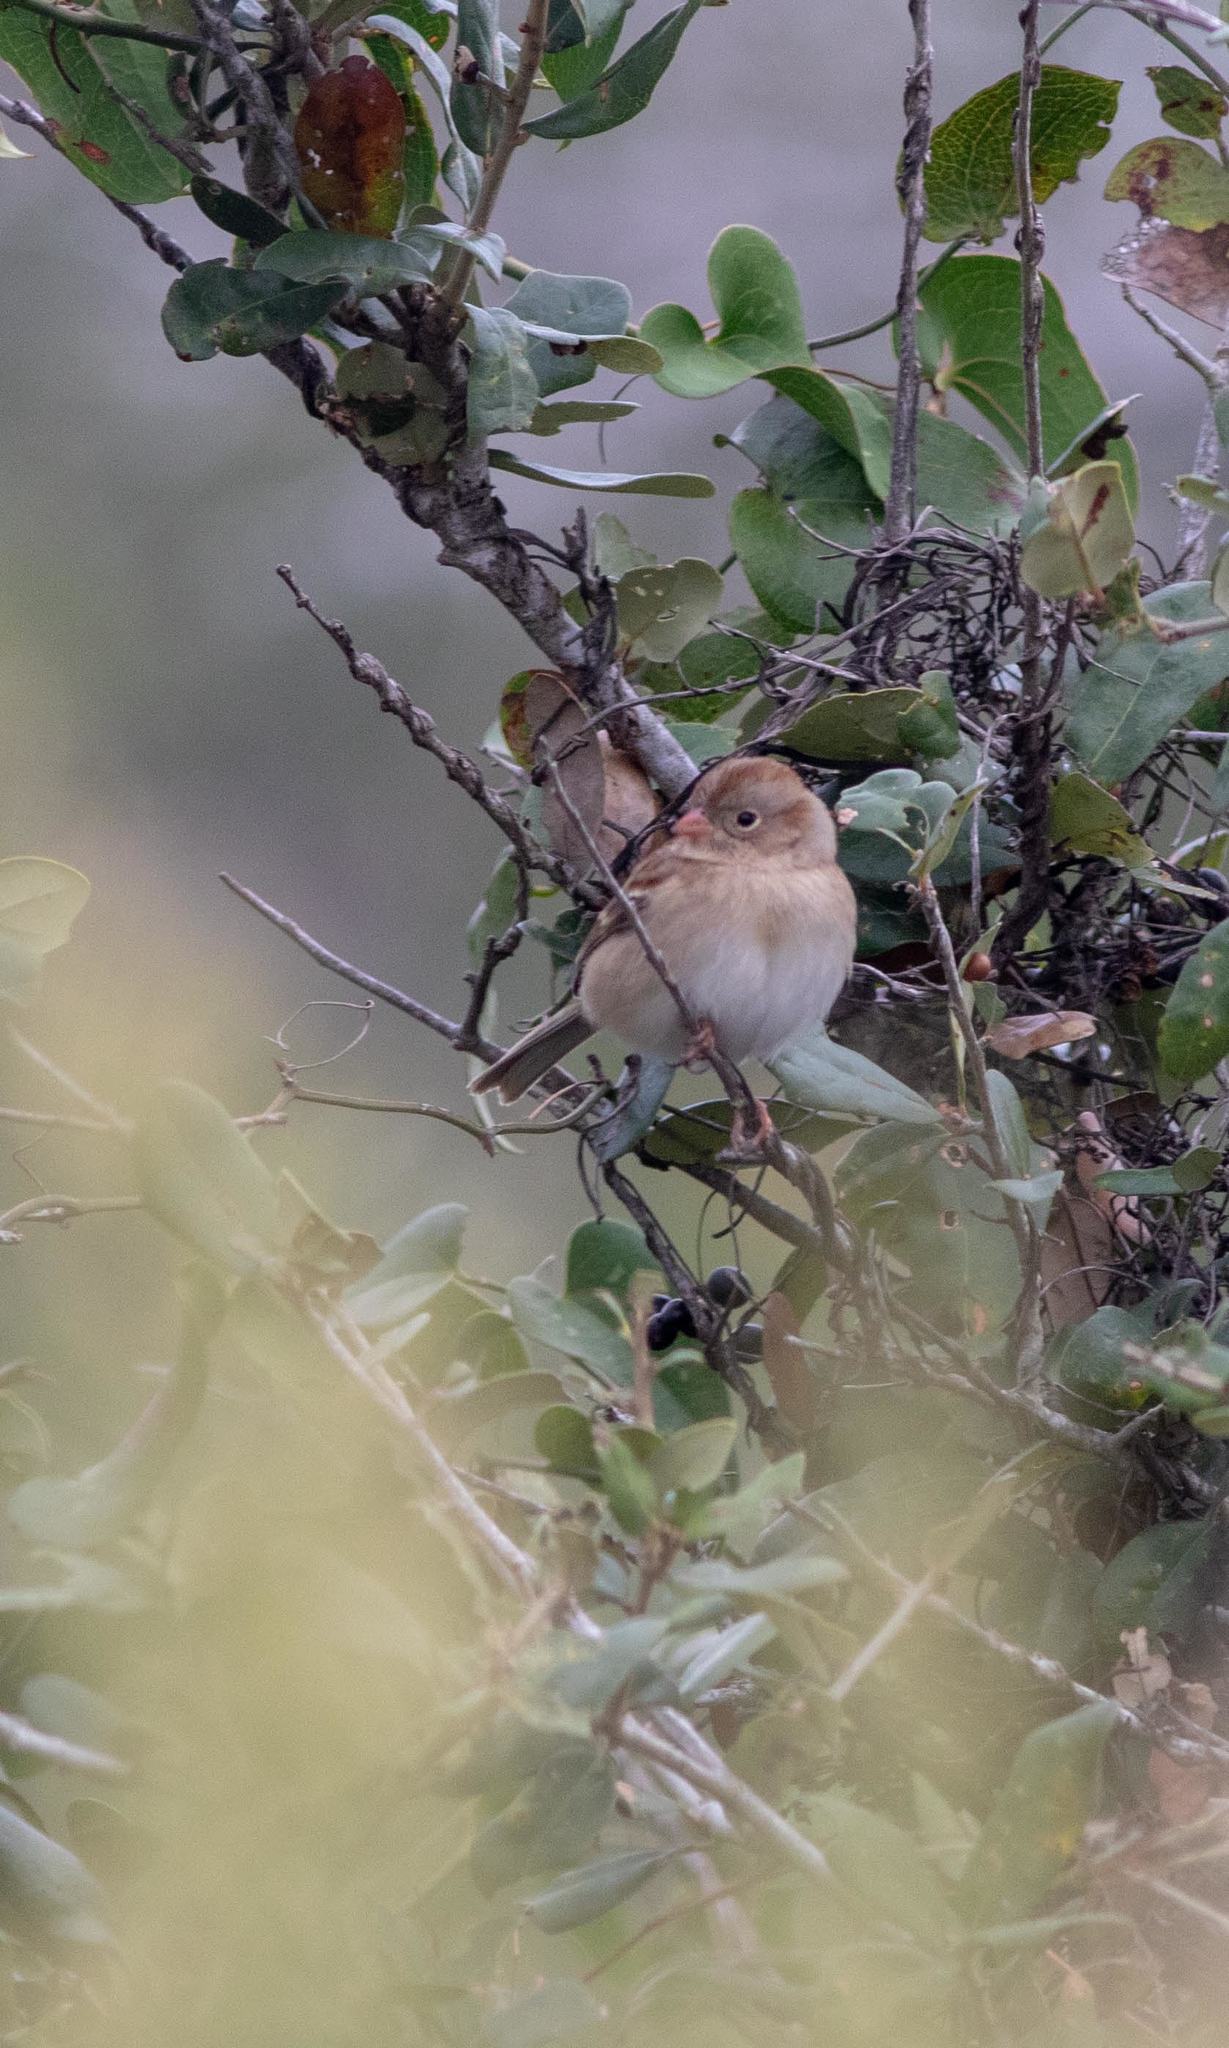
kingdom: Animalia
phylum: Chordata
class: Aves
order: Passeriformes
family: Passerellidae
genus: Spizella
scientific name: Spizella pusilla
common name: Field sparrow
